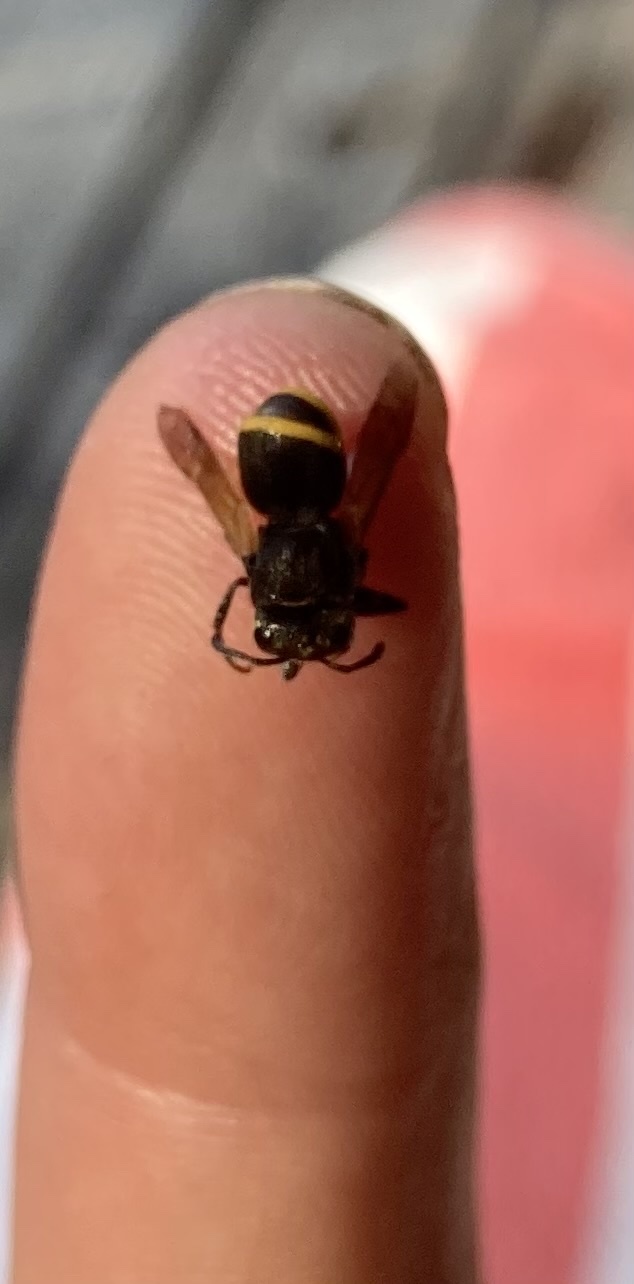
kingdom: Animalia
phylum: Arthropoda
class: Insecta
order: Hymenoptera
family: Vespidae
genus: Brachygastra
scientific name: Brachygastra mellifica
